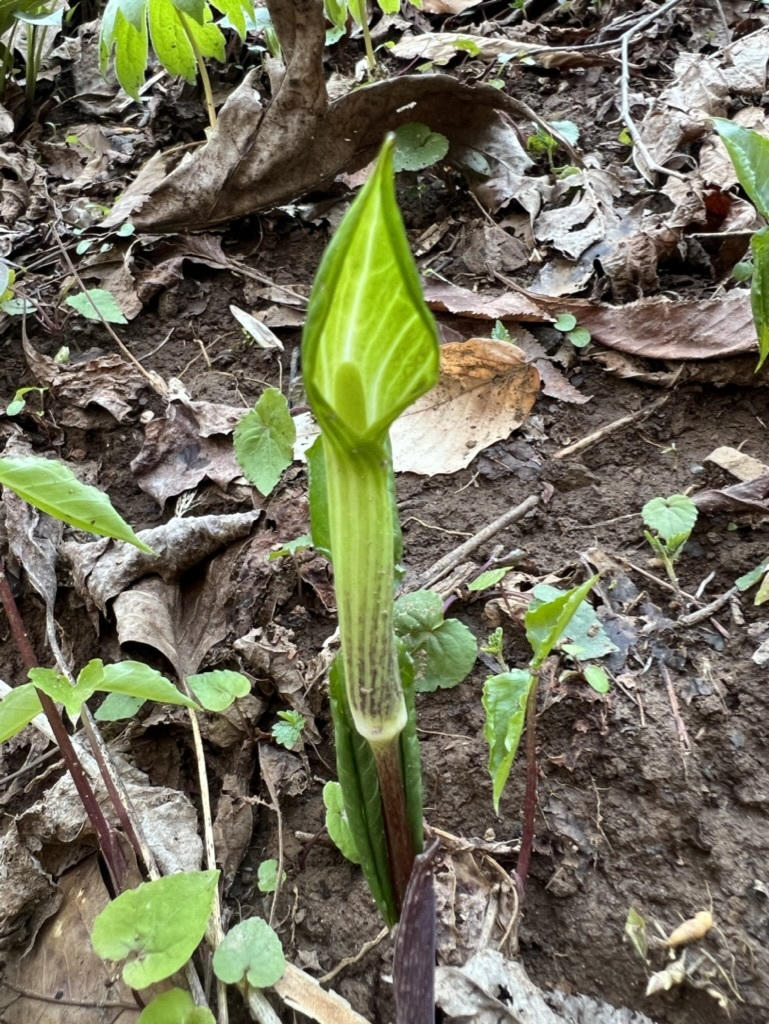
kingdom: Plantae
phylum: Tracheophyta
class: Liliopsida
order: Alismatales
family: Araceae
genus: Arisaema
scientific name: Arisaema triphyllum
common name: Jack-in-the-pulpit
